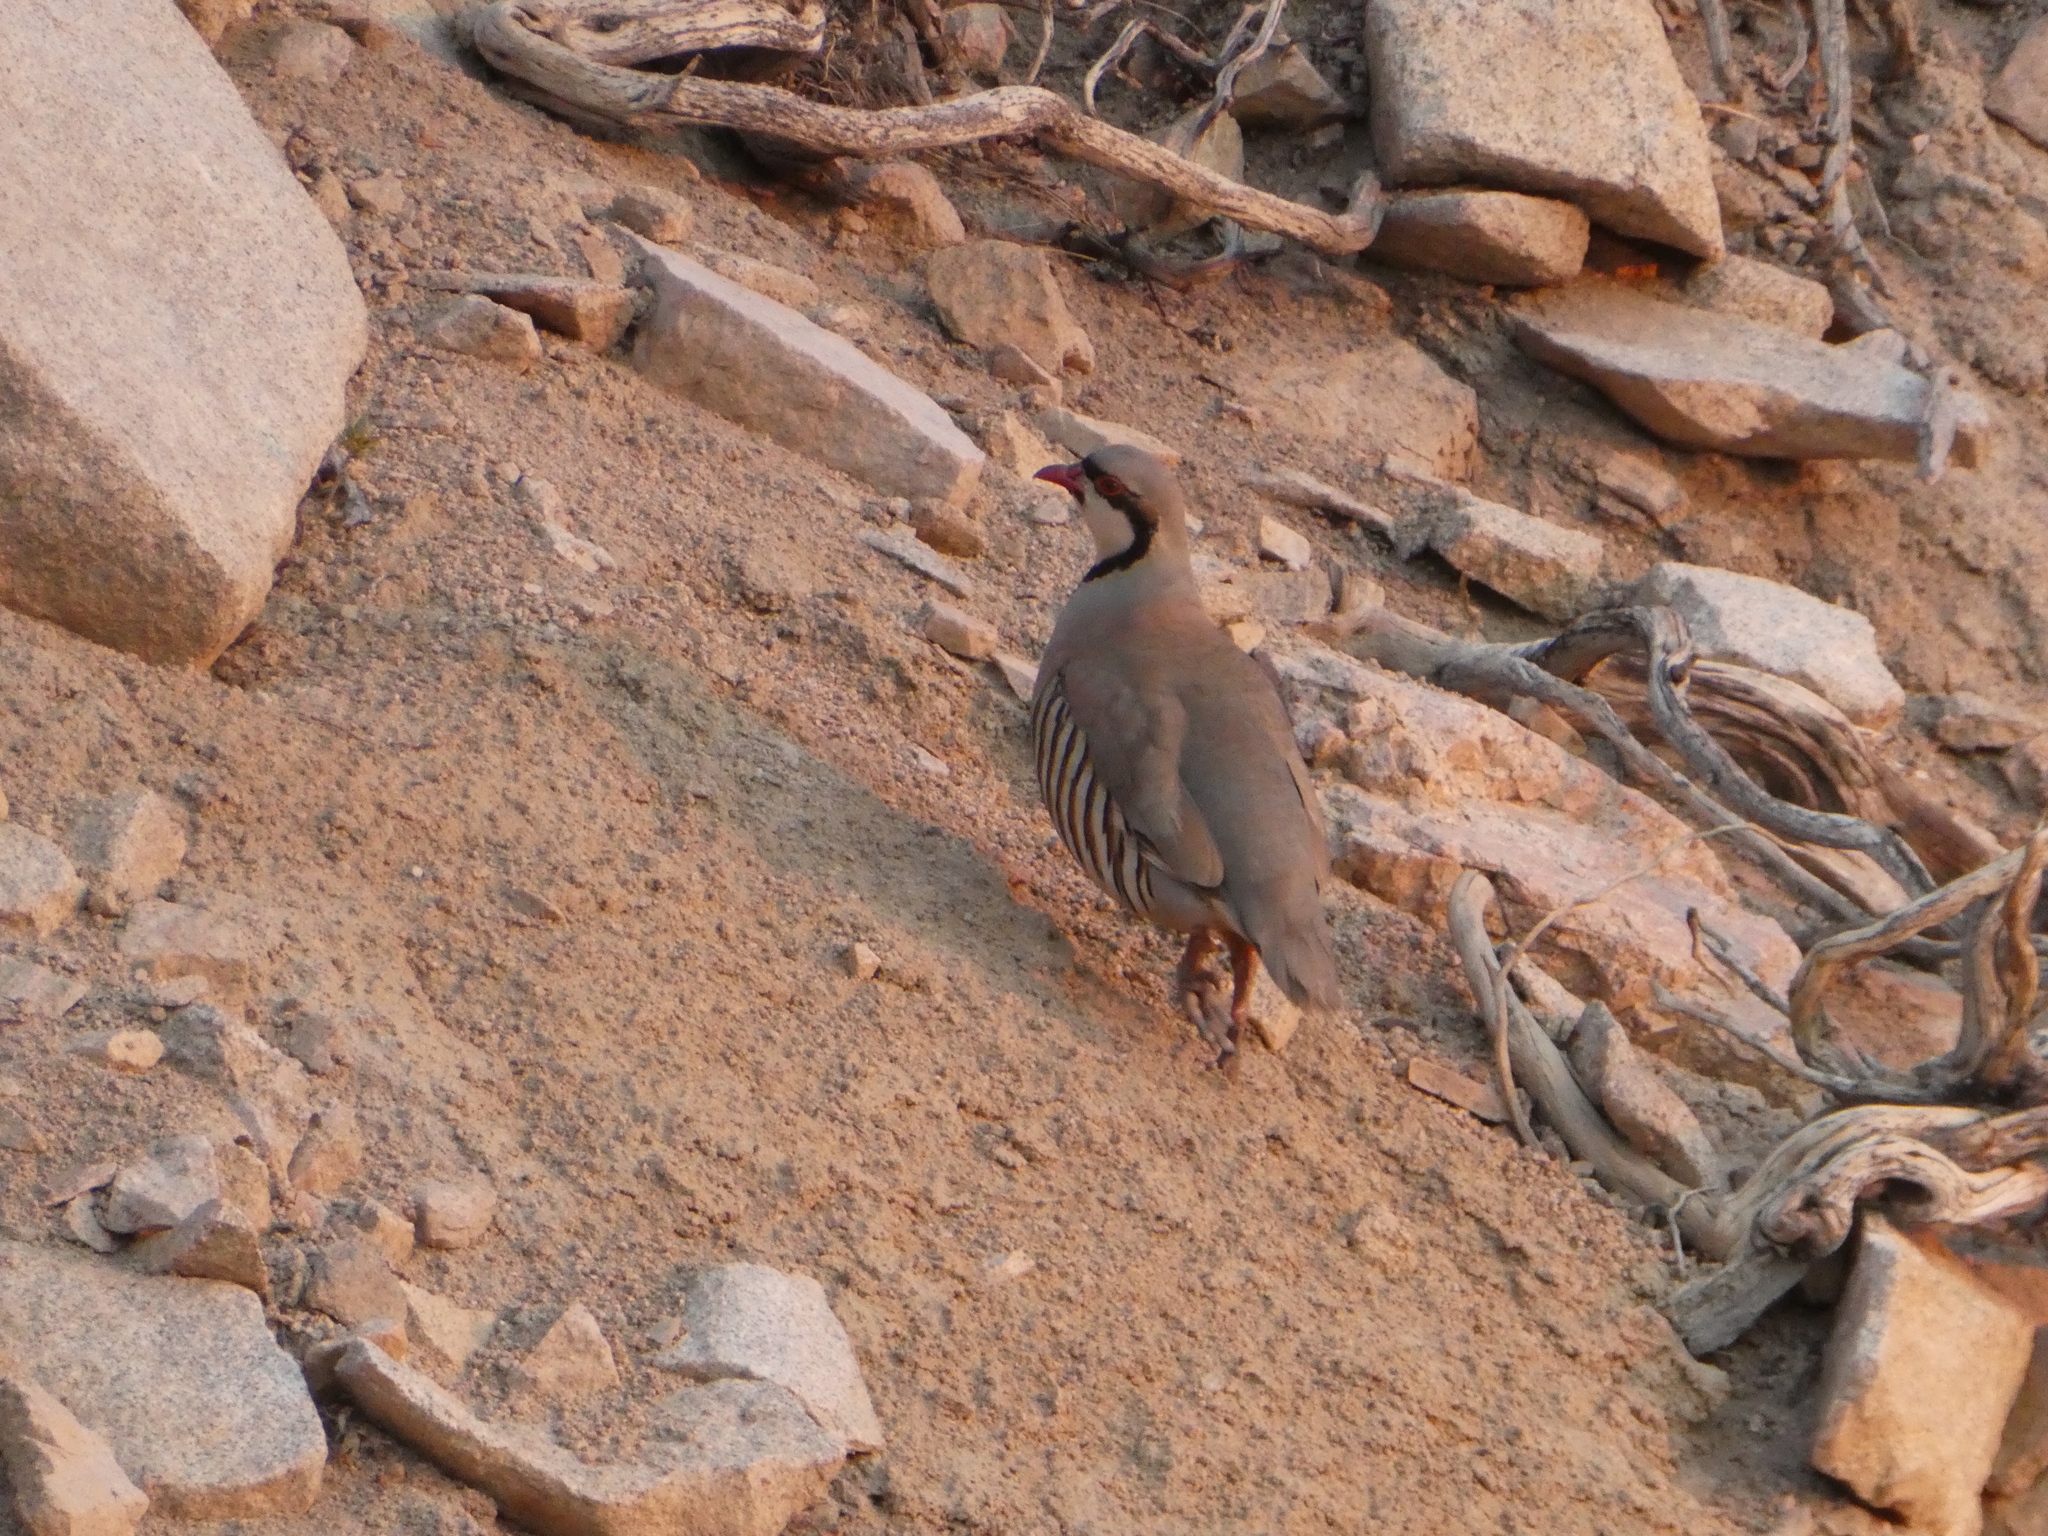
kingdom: Animalia
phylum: Chordata
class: Aves
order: Galliformes
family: Phasianidae
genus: Alectoris
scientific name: Alectoris chukar
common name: Chukar
